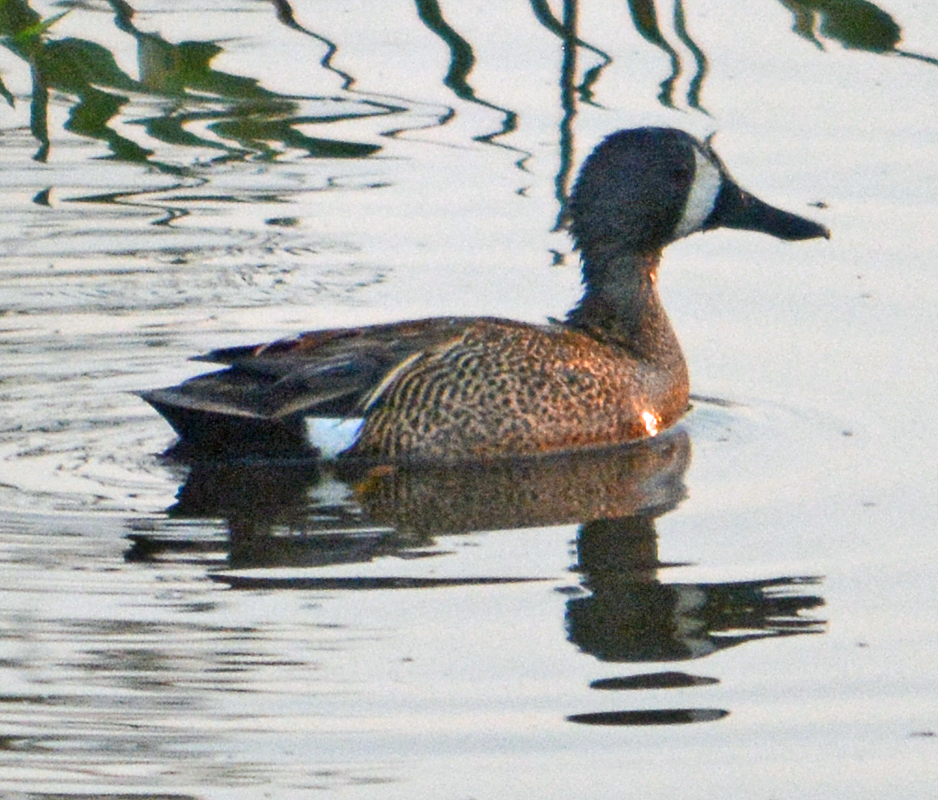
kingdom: Animalia
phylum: Chordata
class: Aves
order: Anseriformes
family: Anatidae
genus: Spatula
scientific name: Spatula discors
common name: Blue-winged teal
